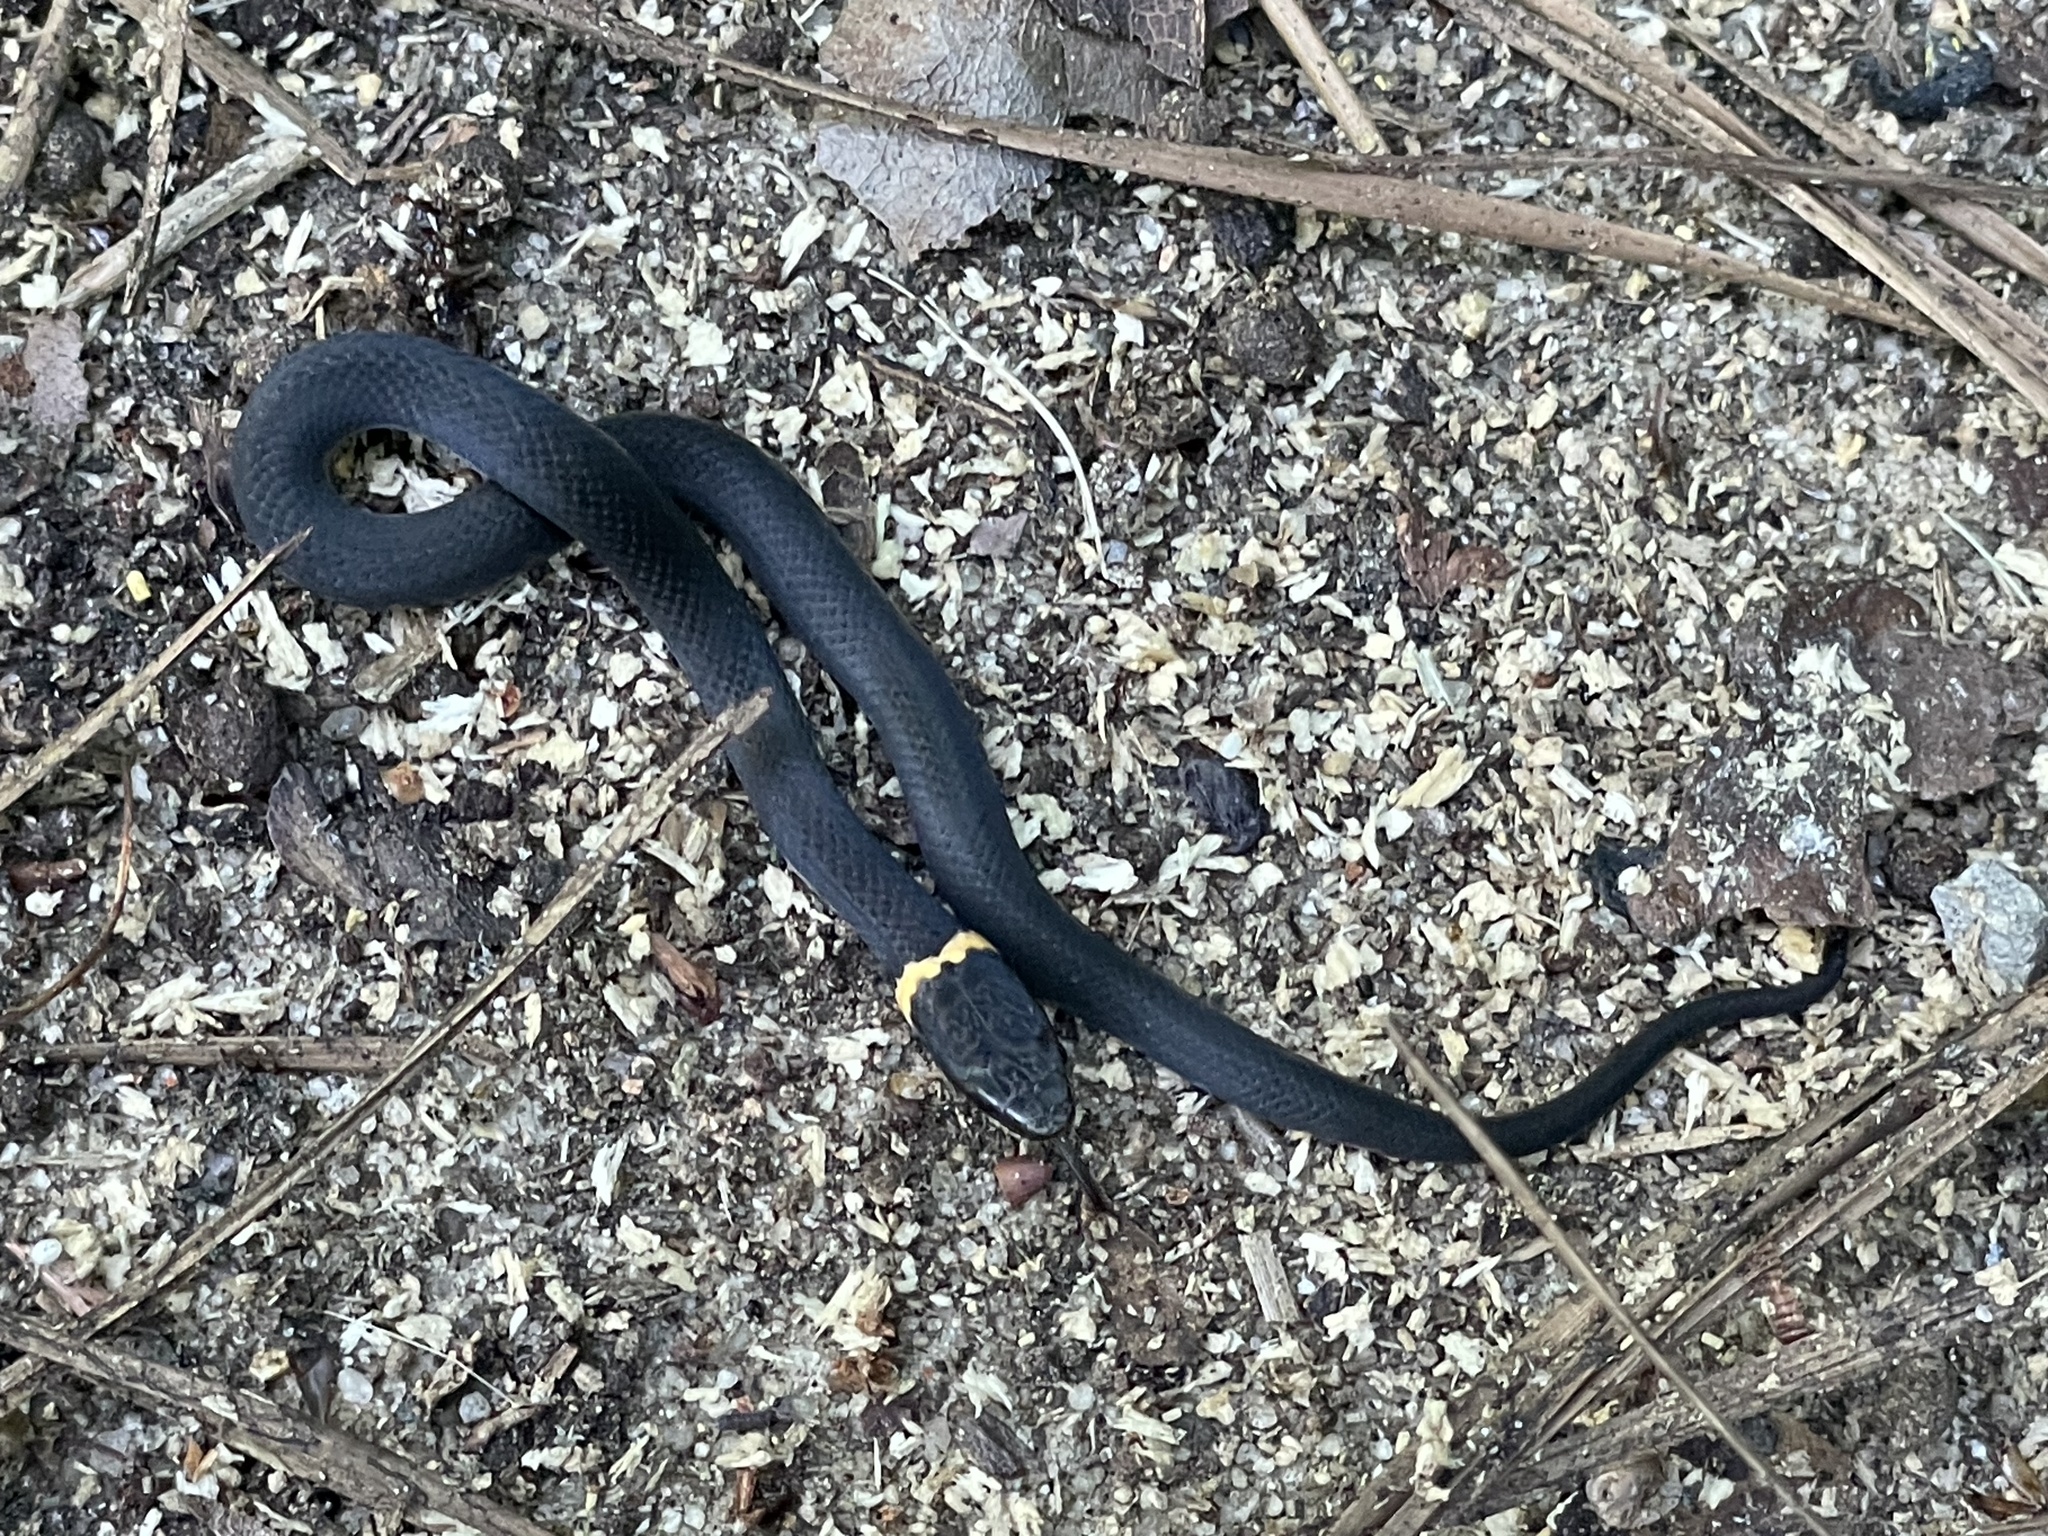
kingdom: Animalia
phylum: Chordata
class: Squamata
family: Colubridae
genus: Diadophis
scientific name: Diadophis punctatus
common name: Ringneck snake
